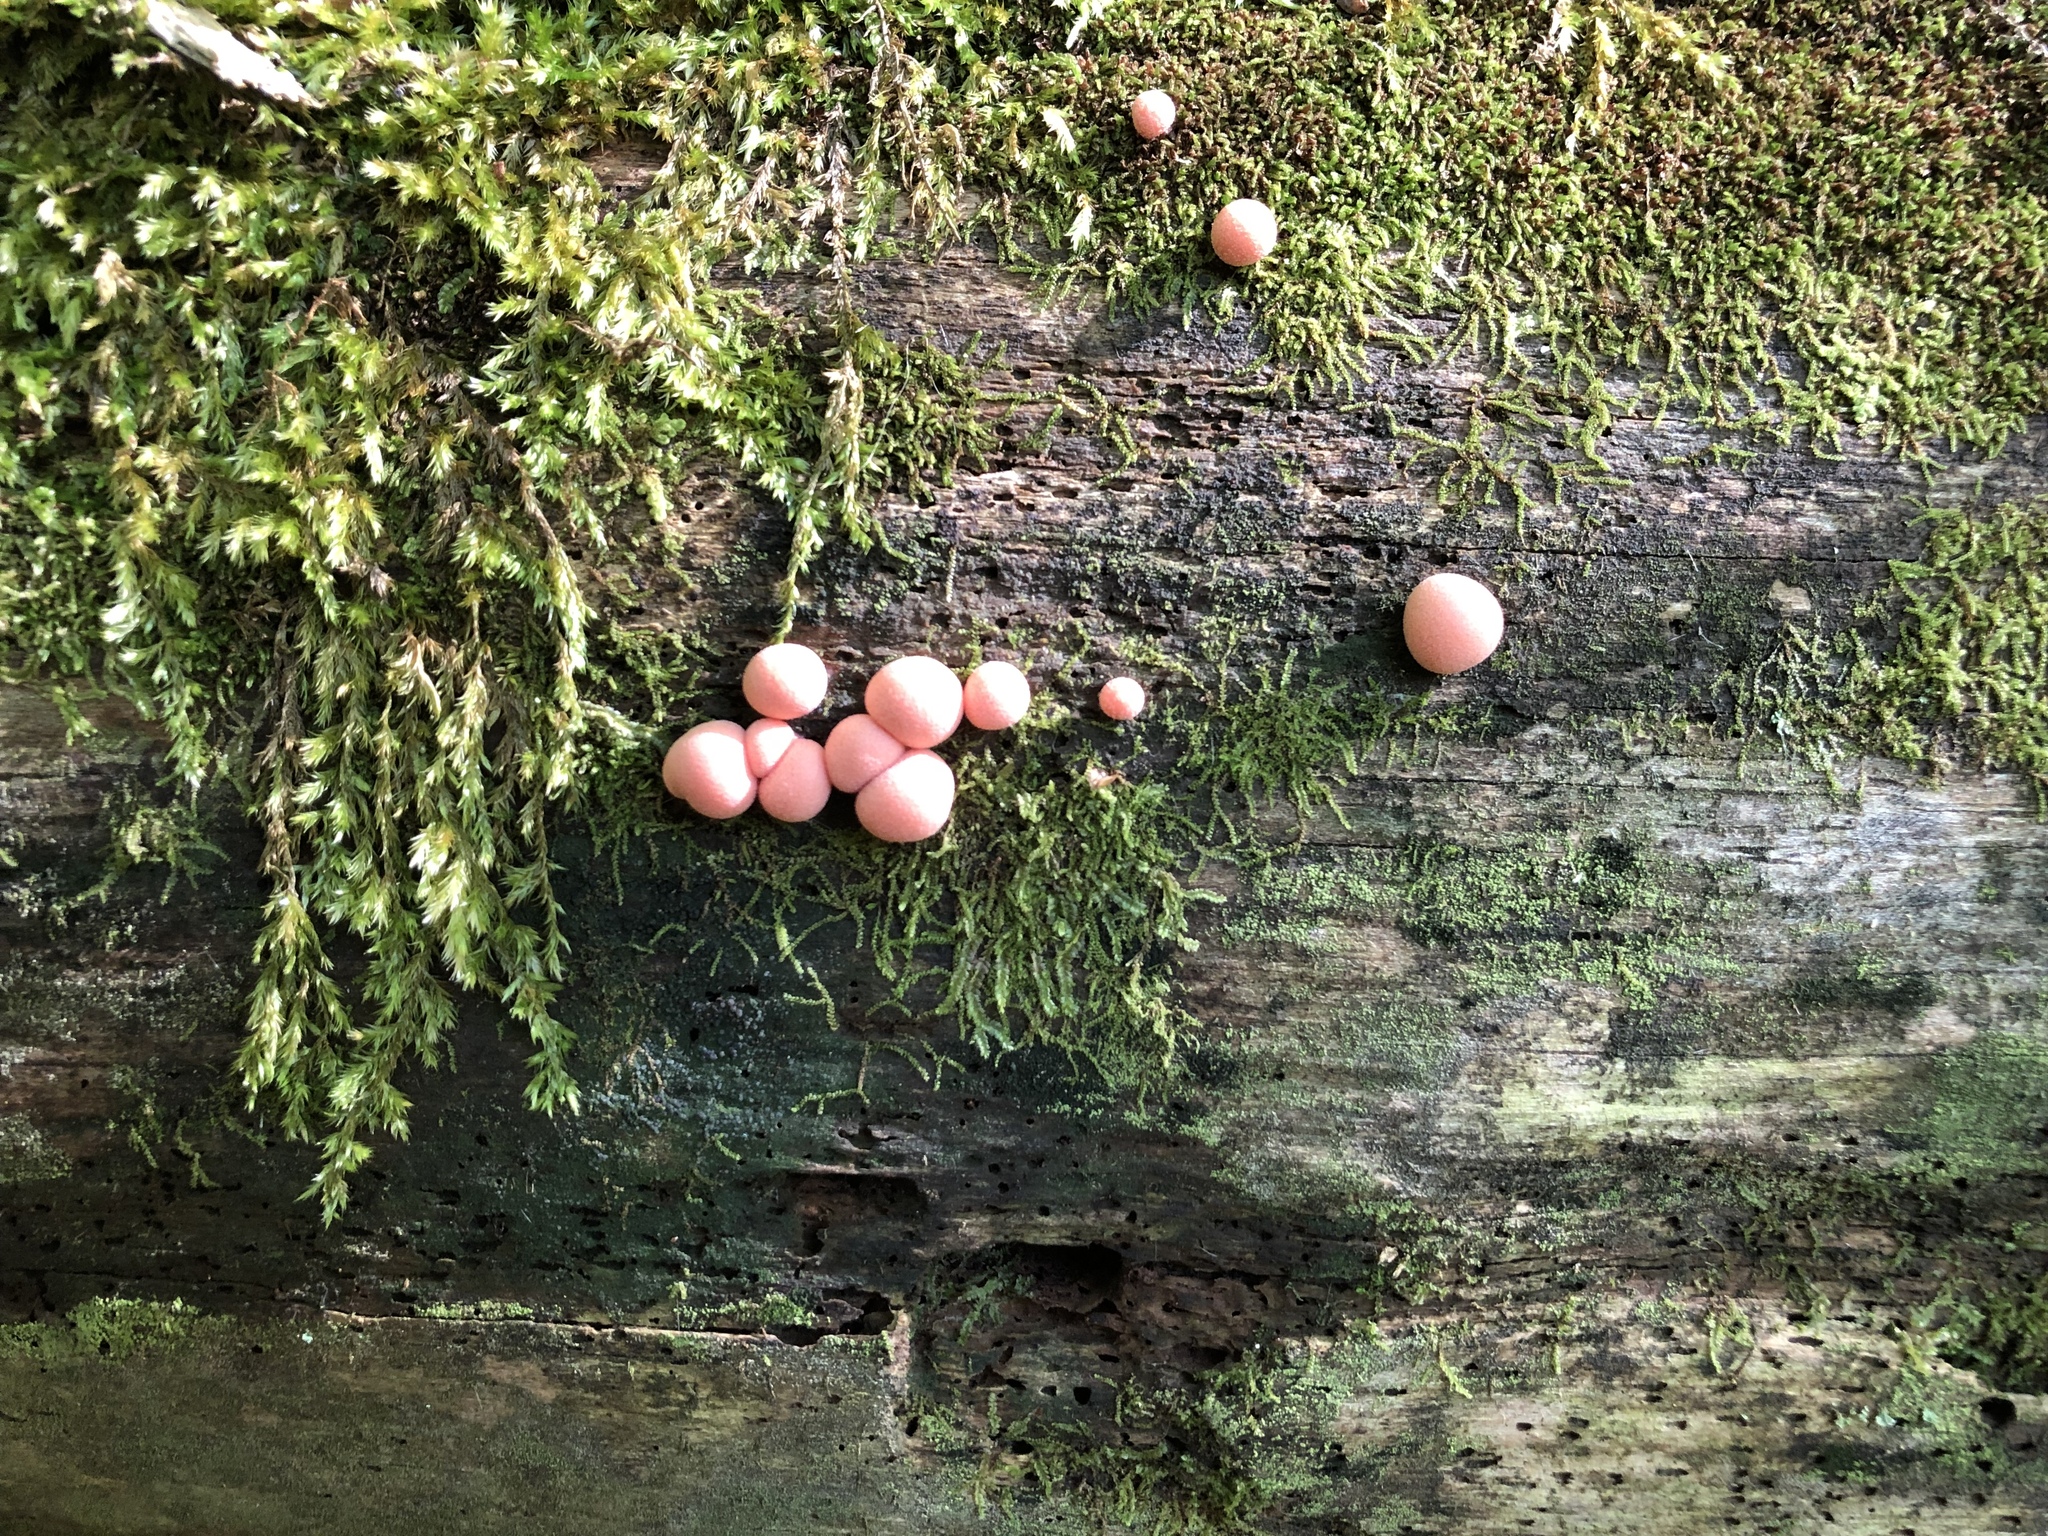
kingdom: Protozoa
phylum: Mycetozoa
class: Myxomycetes
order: Cribrariales
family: Tubiferaceae
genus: Lycogala
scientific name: Lycogala epidendrum
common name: Wolf's milk
